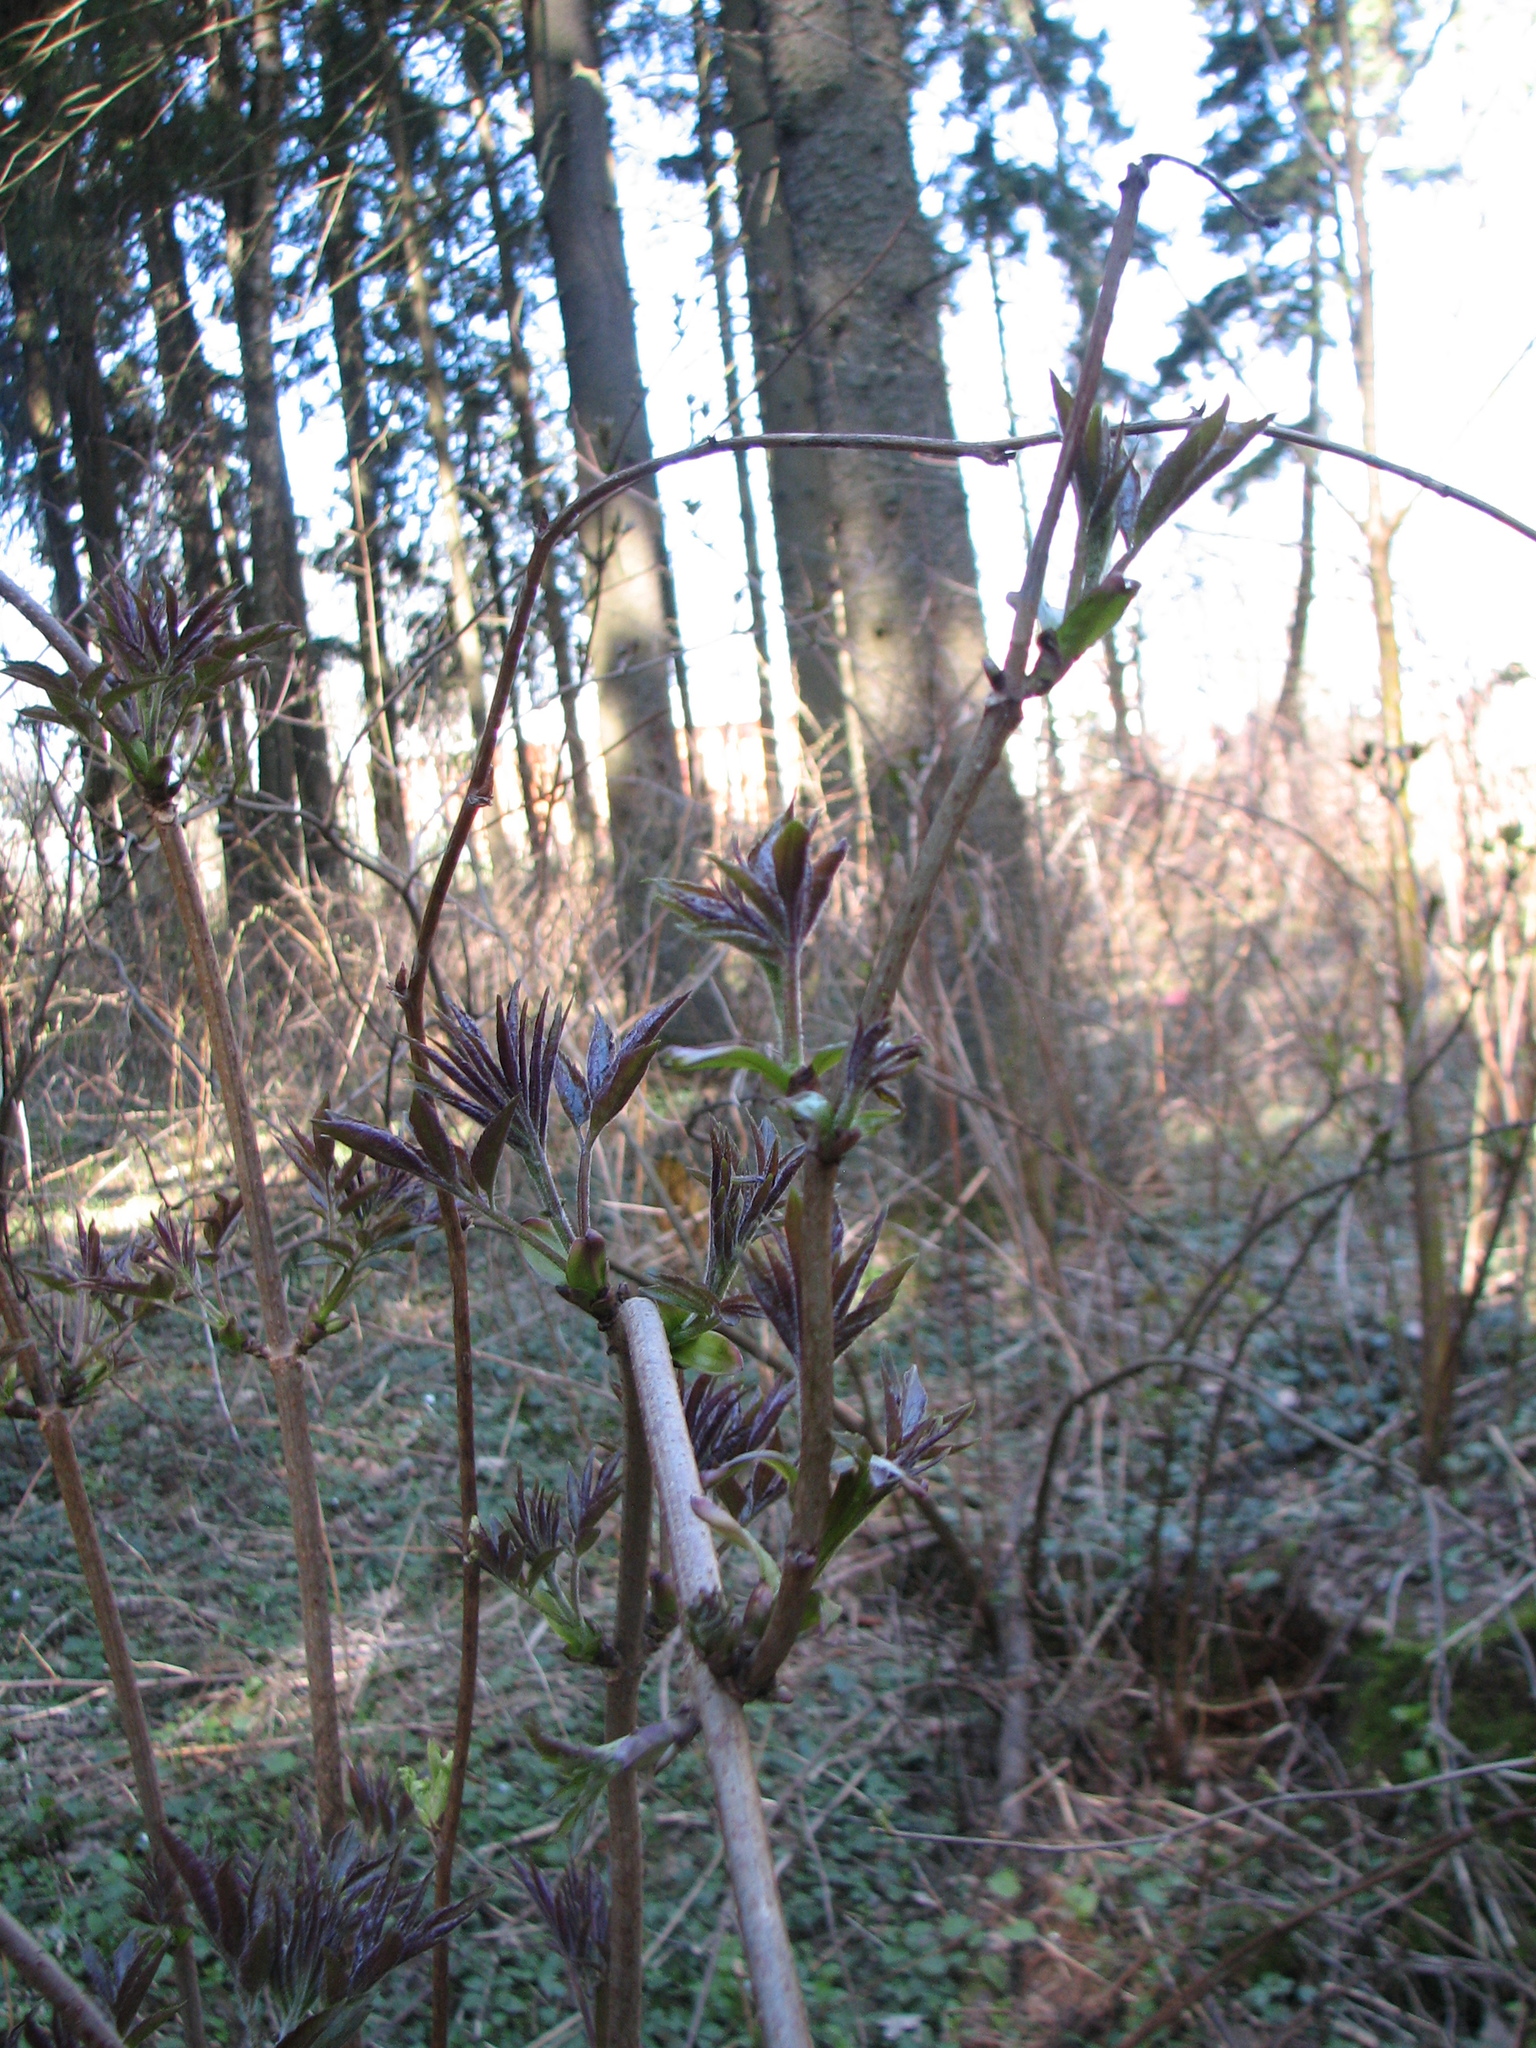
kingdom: Plantae
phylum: Tracheophyta
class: Magnoliopsida
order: Dipsacales
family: Viburnaceae
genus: Sambucus
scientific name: Sambucus racemosa
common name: Red-berried elder
